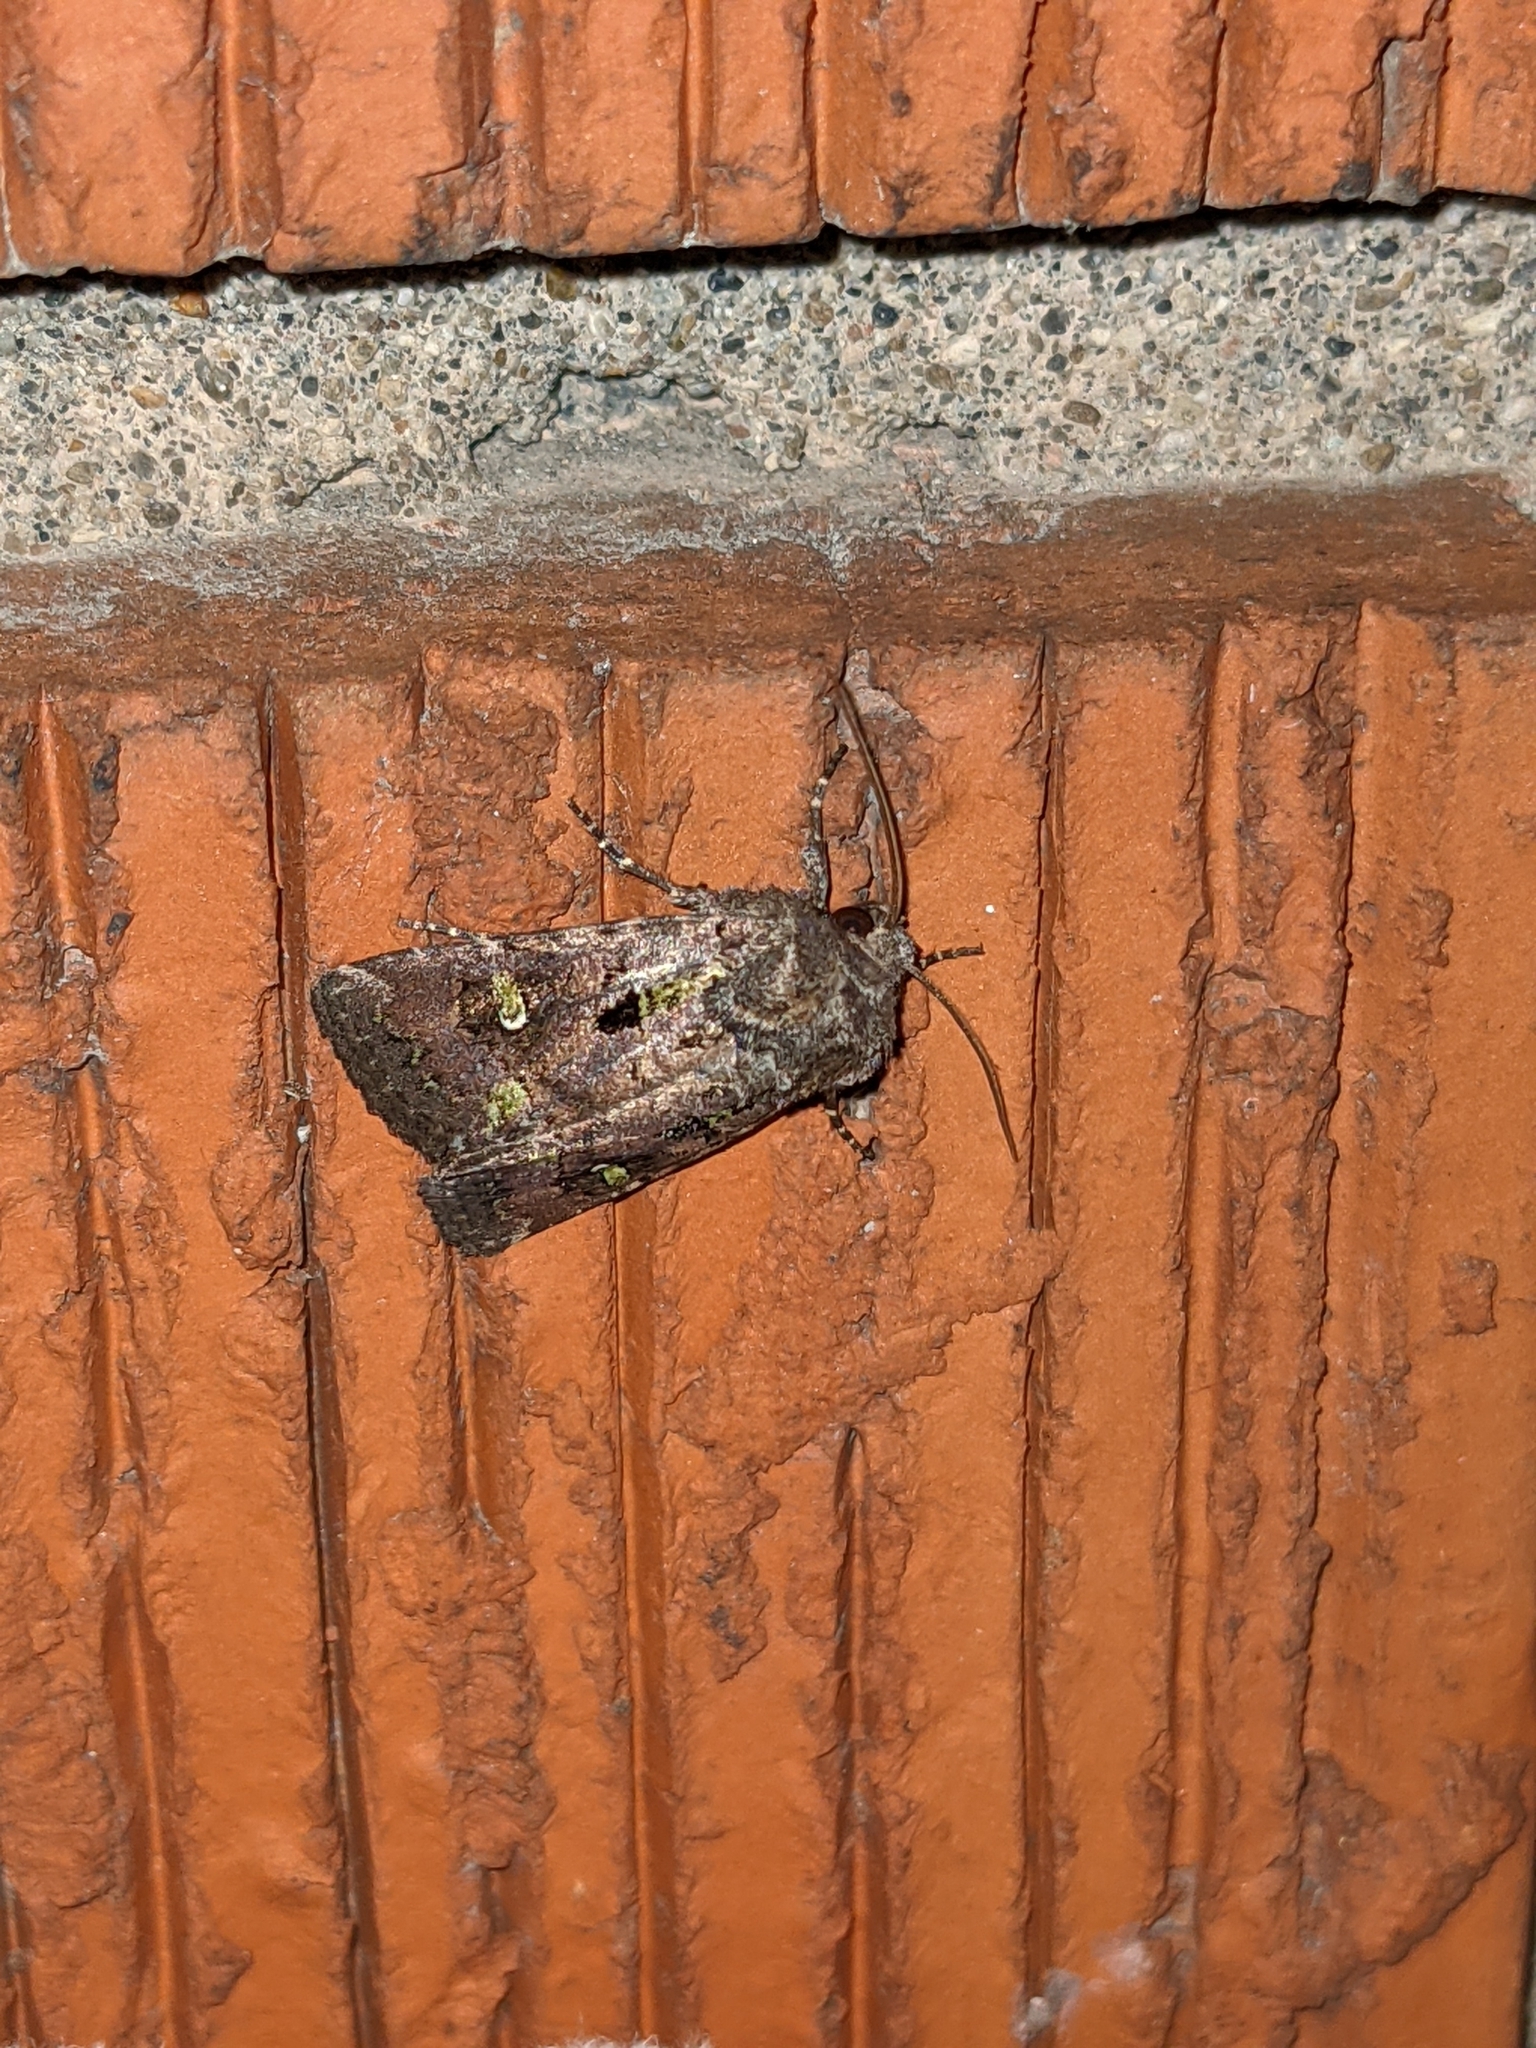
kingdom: Animalia
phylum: Arthropoda
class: Insecta
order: Lepidoptera
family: Noctuidae
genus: Lacinipolia
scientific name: Lacinipolia renigera
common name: Kidney-spotted minor
